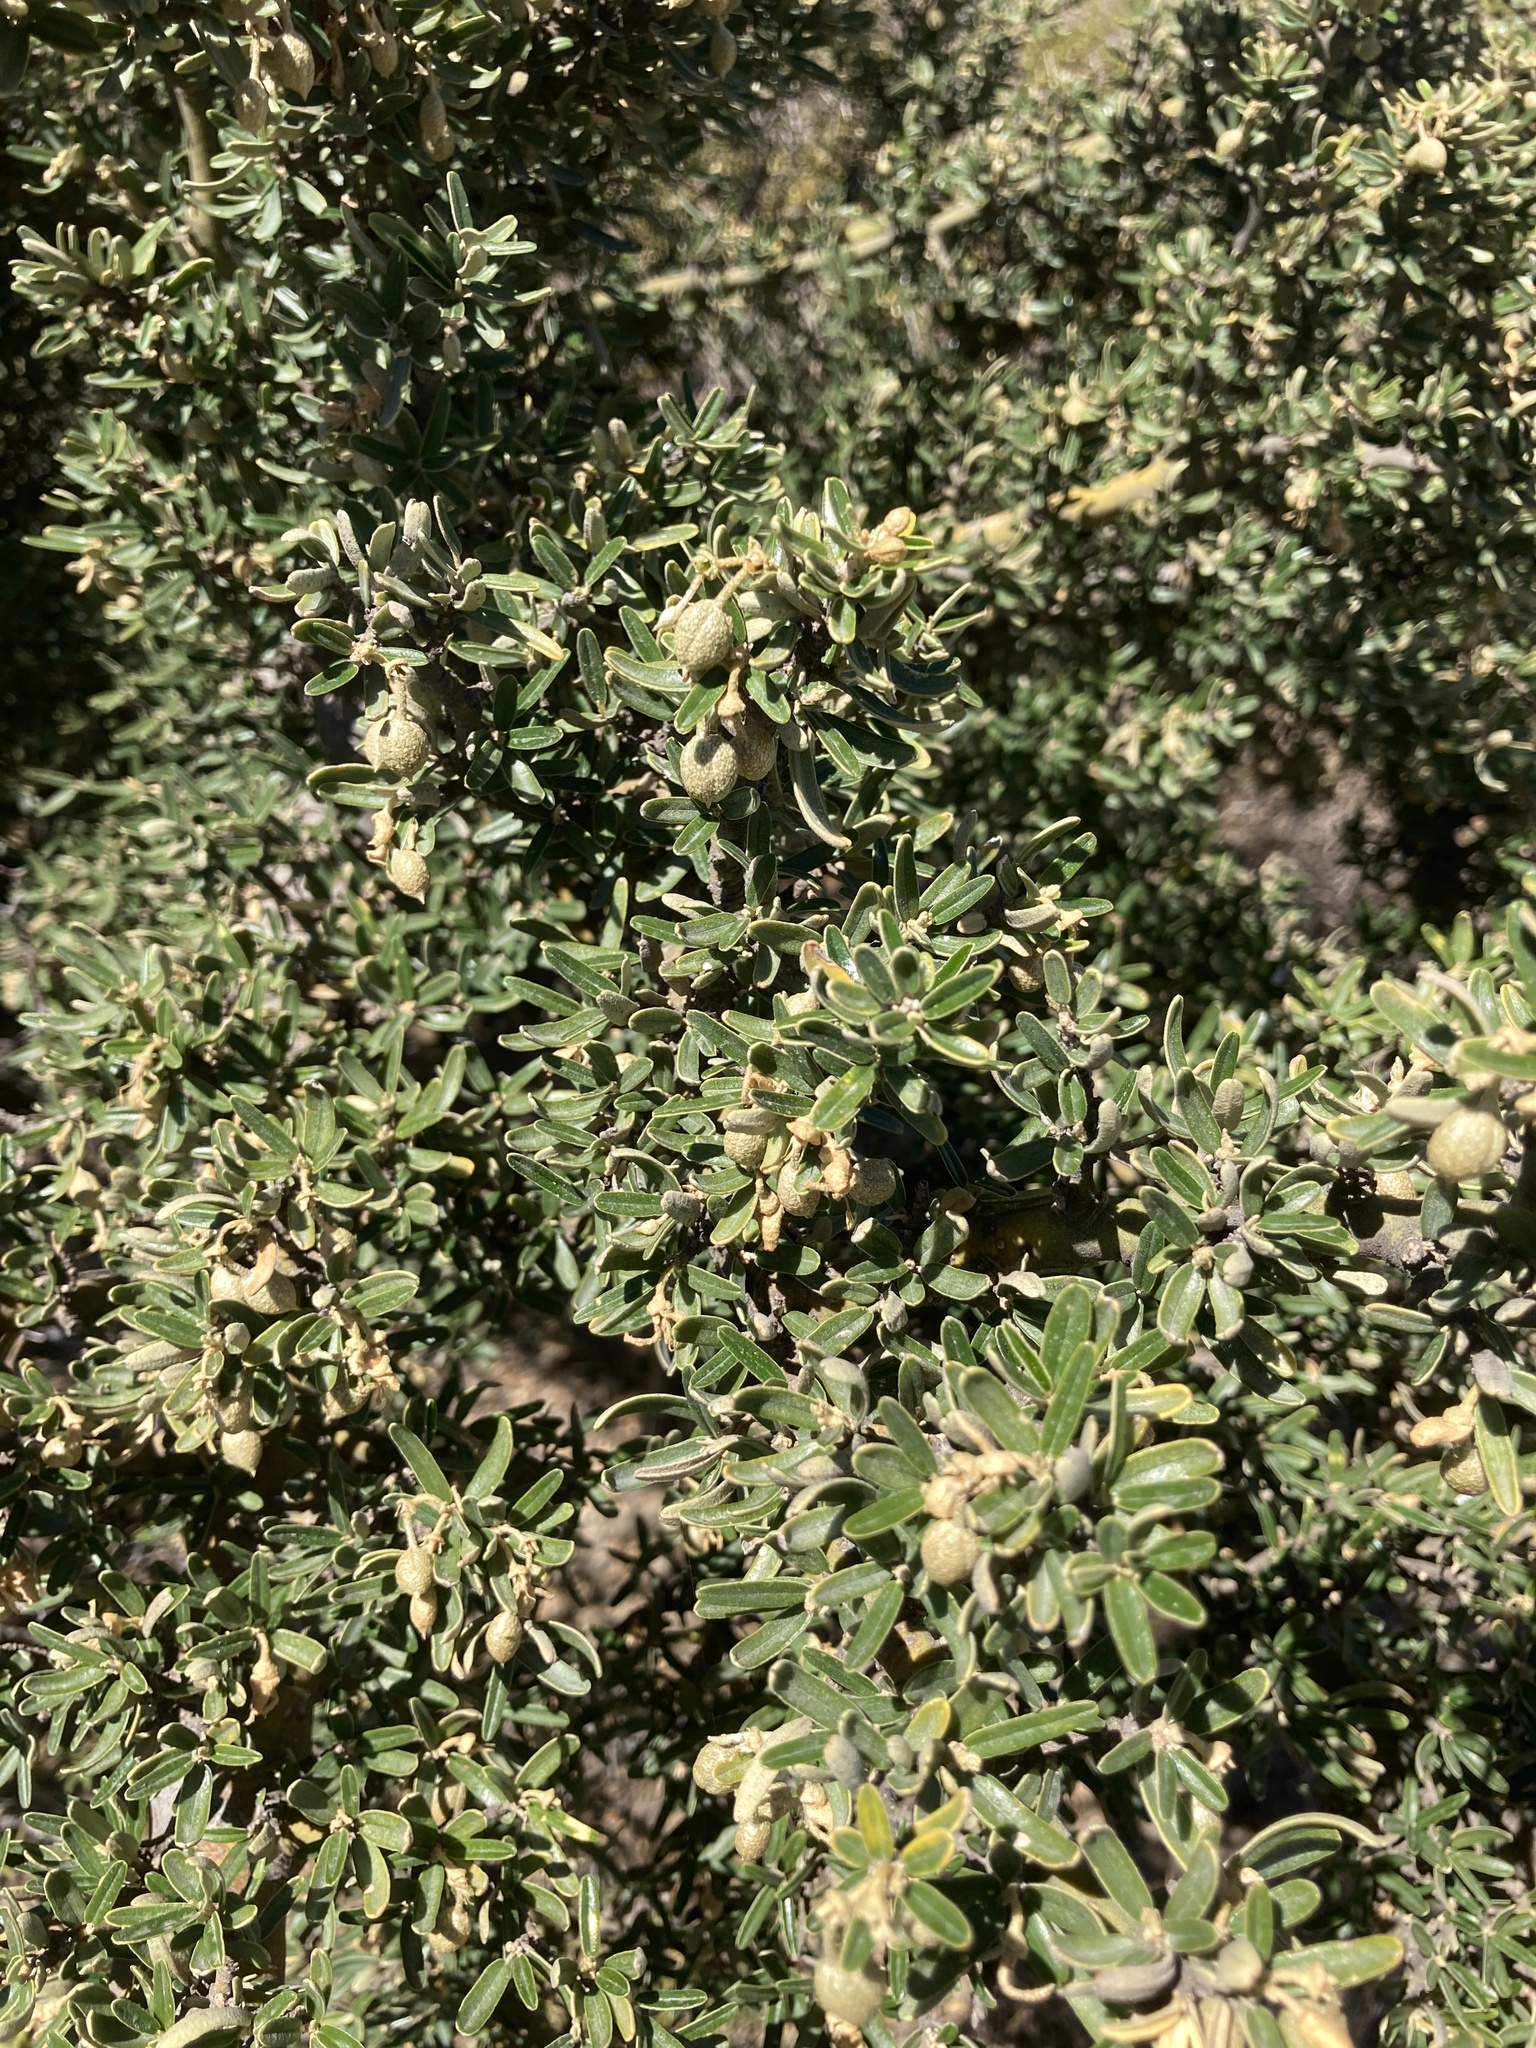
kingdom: Plantae
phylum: Tracheophyta
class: Magnoliopsida
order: Brassicales
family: Capparaceae
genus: Atamisquea
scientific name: Atamisquea emarginata
